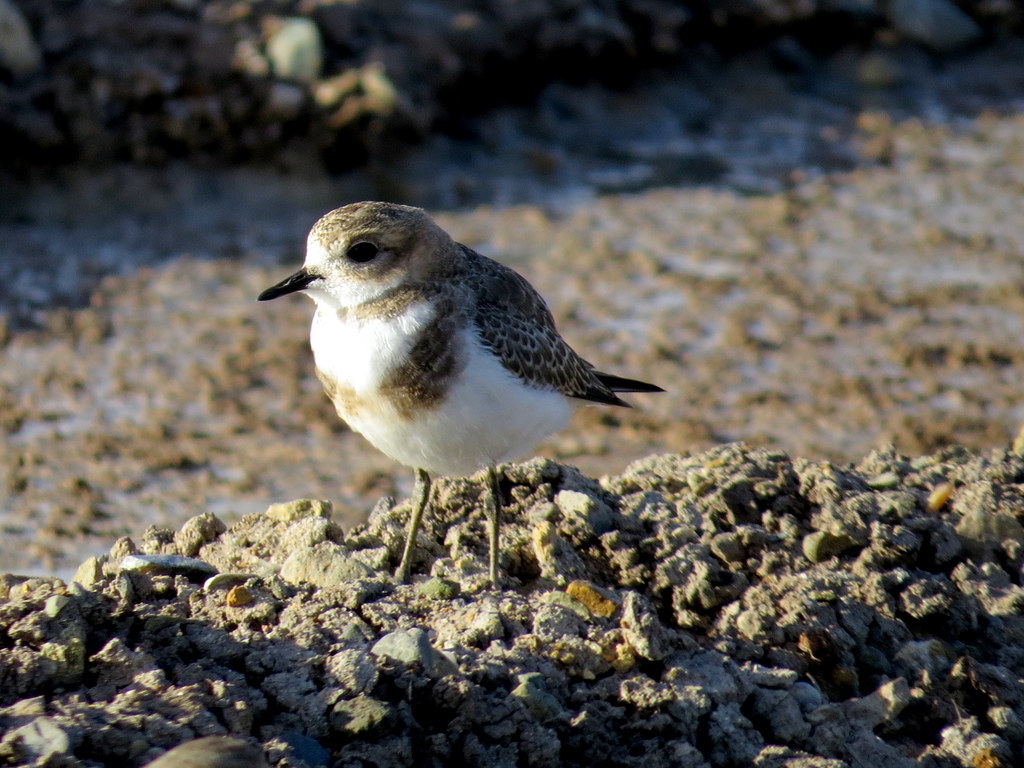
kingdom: Animalia
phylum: Chordata
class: Aves
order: Charadriiformes
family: Charadriidae
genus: Anarhynchus
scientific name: Anarhynchus
